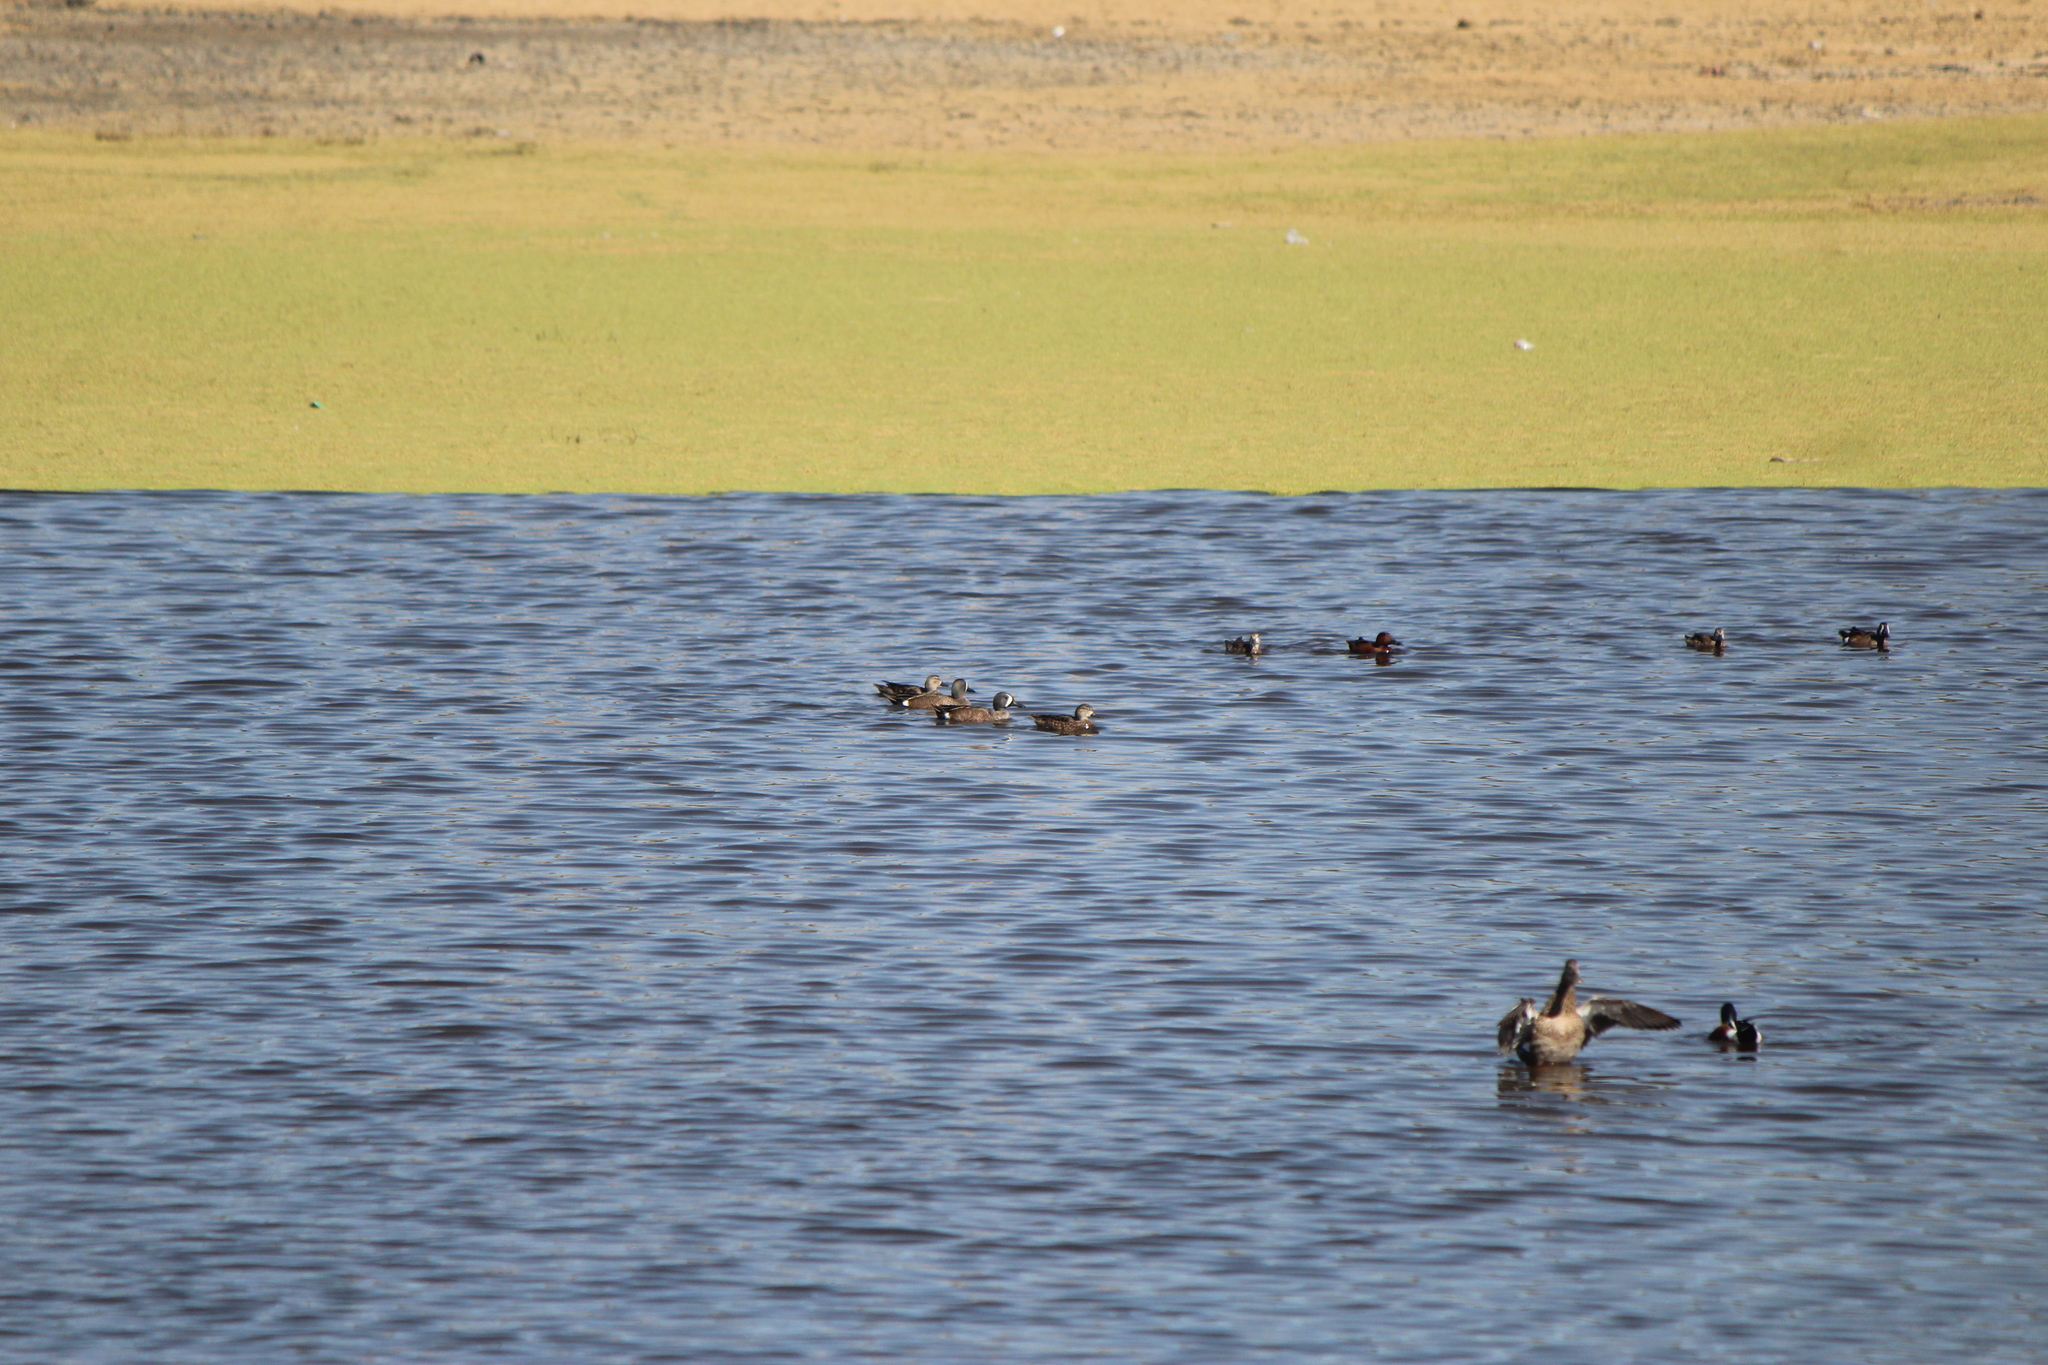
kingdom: Animalia
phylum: Chordata
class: Aves
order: Anseriformes
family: Anatidae
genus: Spatula
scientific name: Spatula discors
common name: Blue-winged teal
